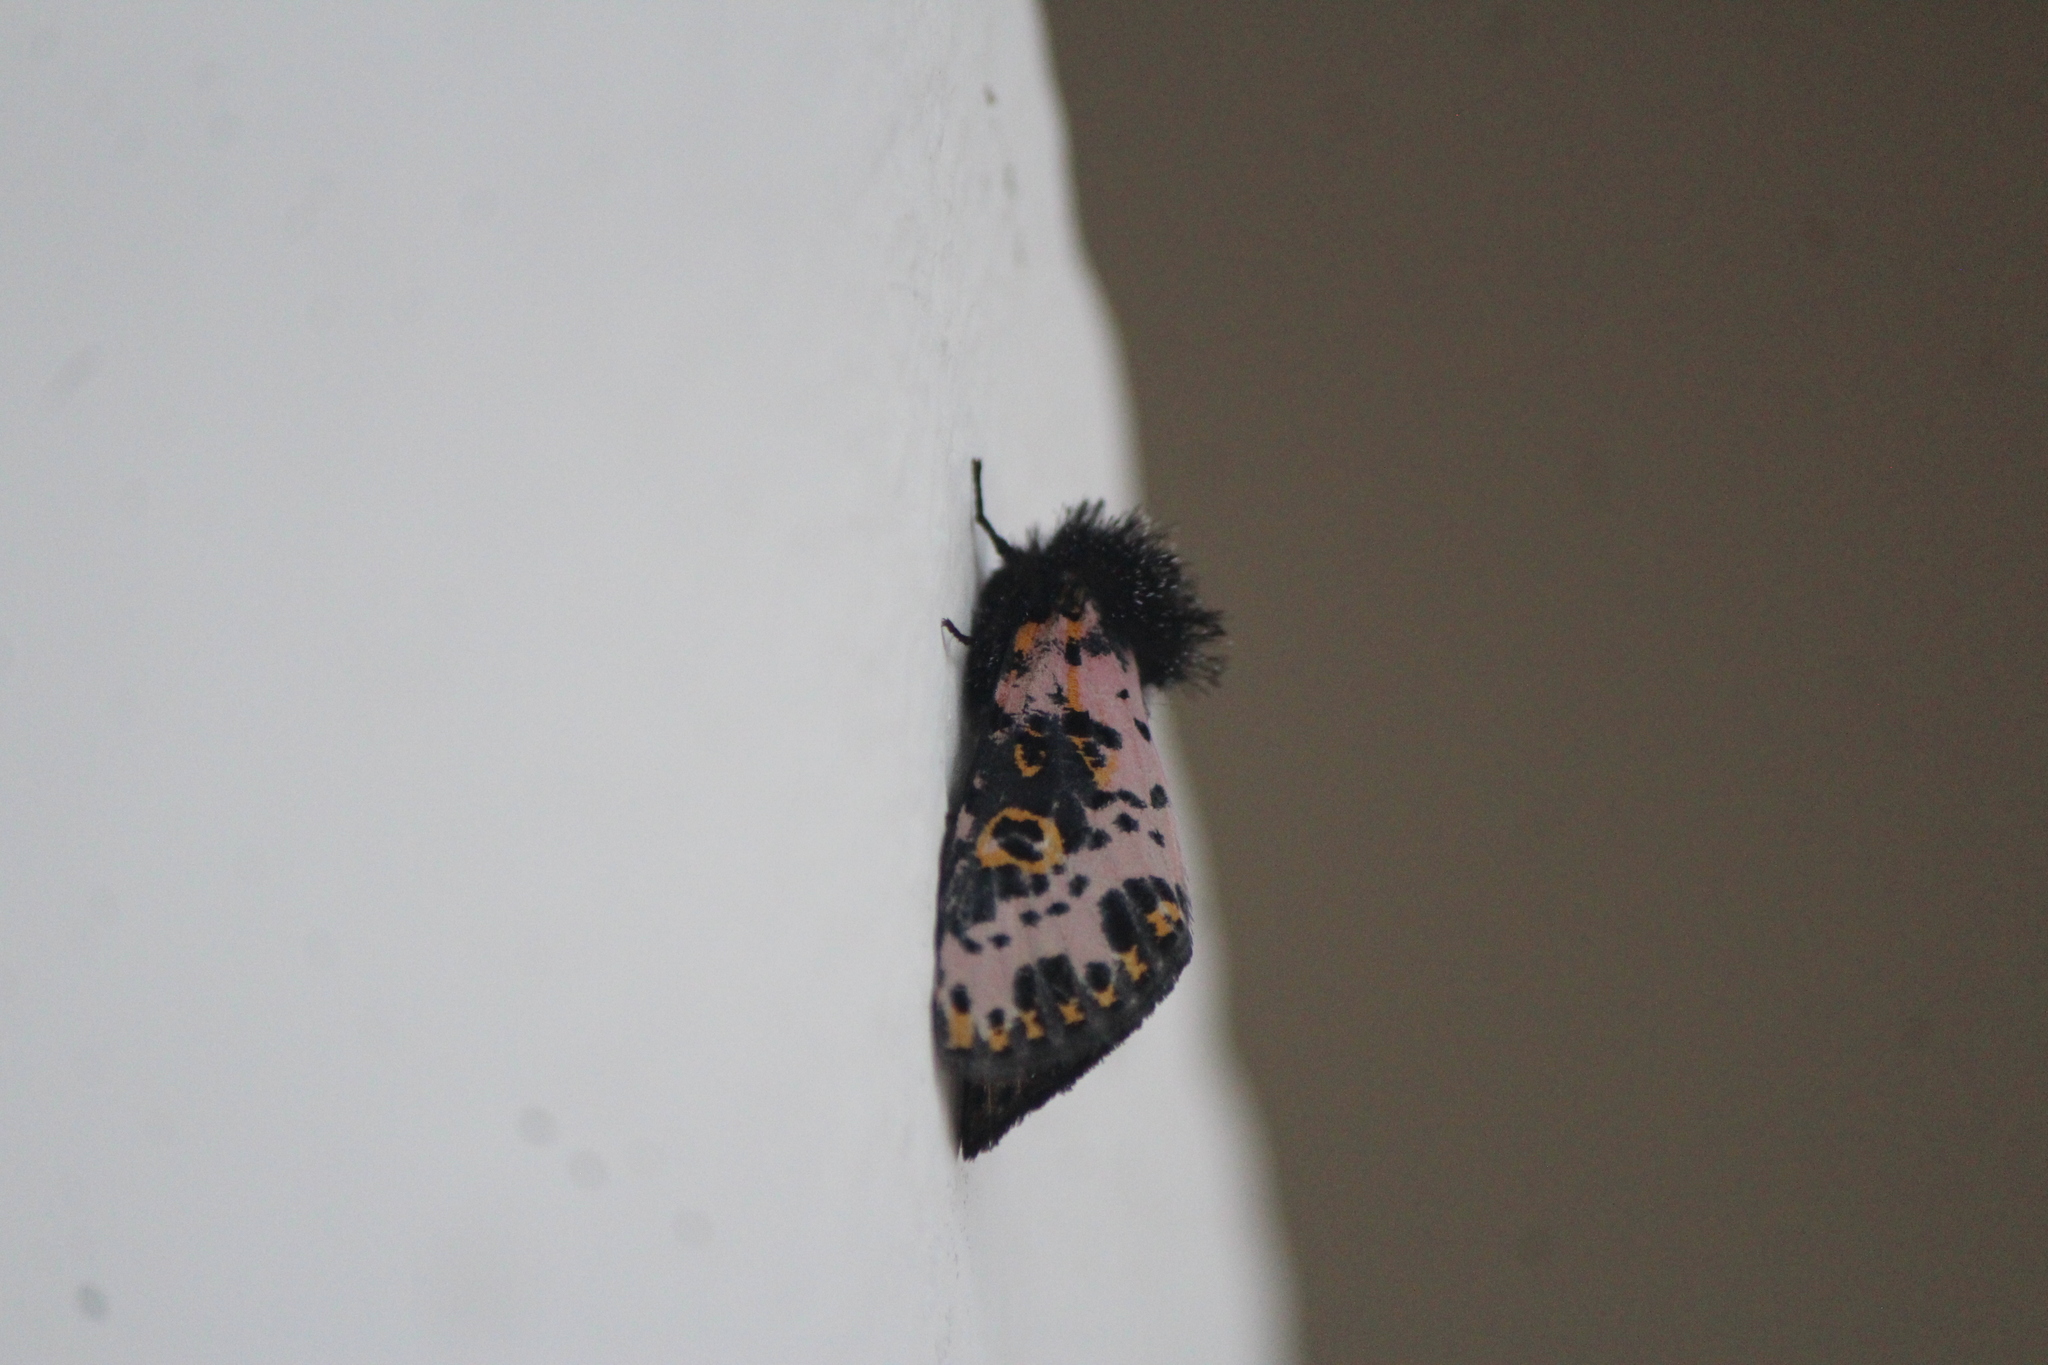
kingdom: Animalia
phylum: Arthropoda
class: Insecta
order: Lepidoptera
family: Noctuidae
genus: Xanthopastis
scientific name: Xanthopastis moctezuma
